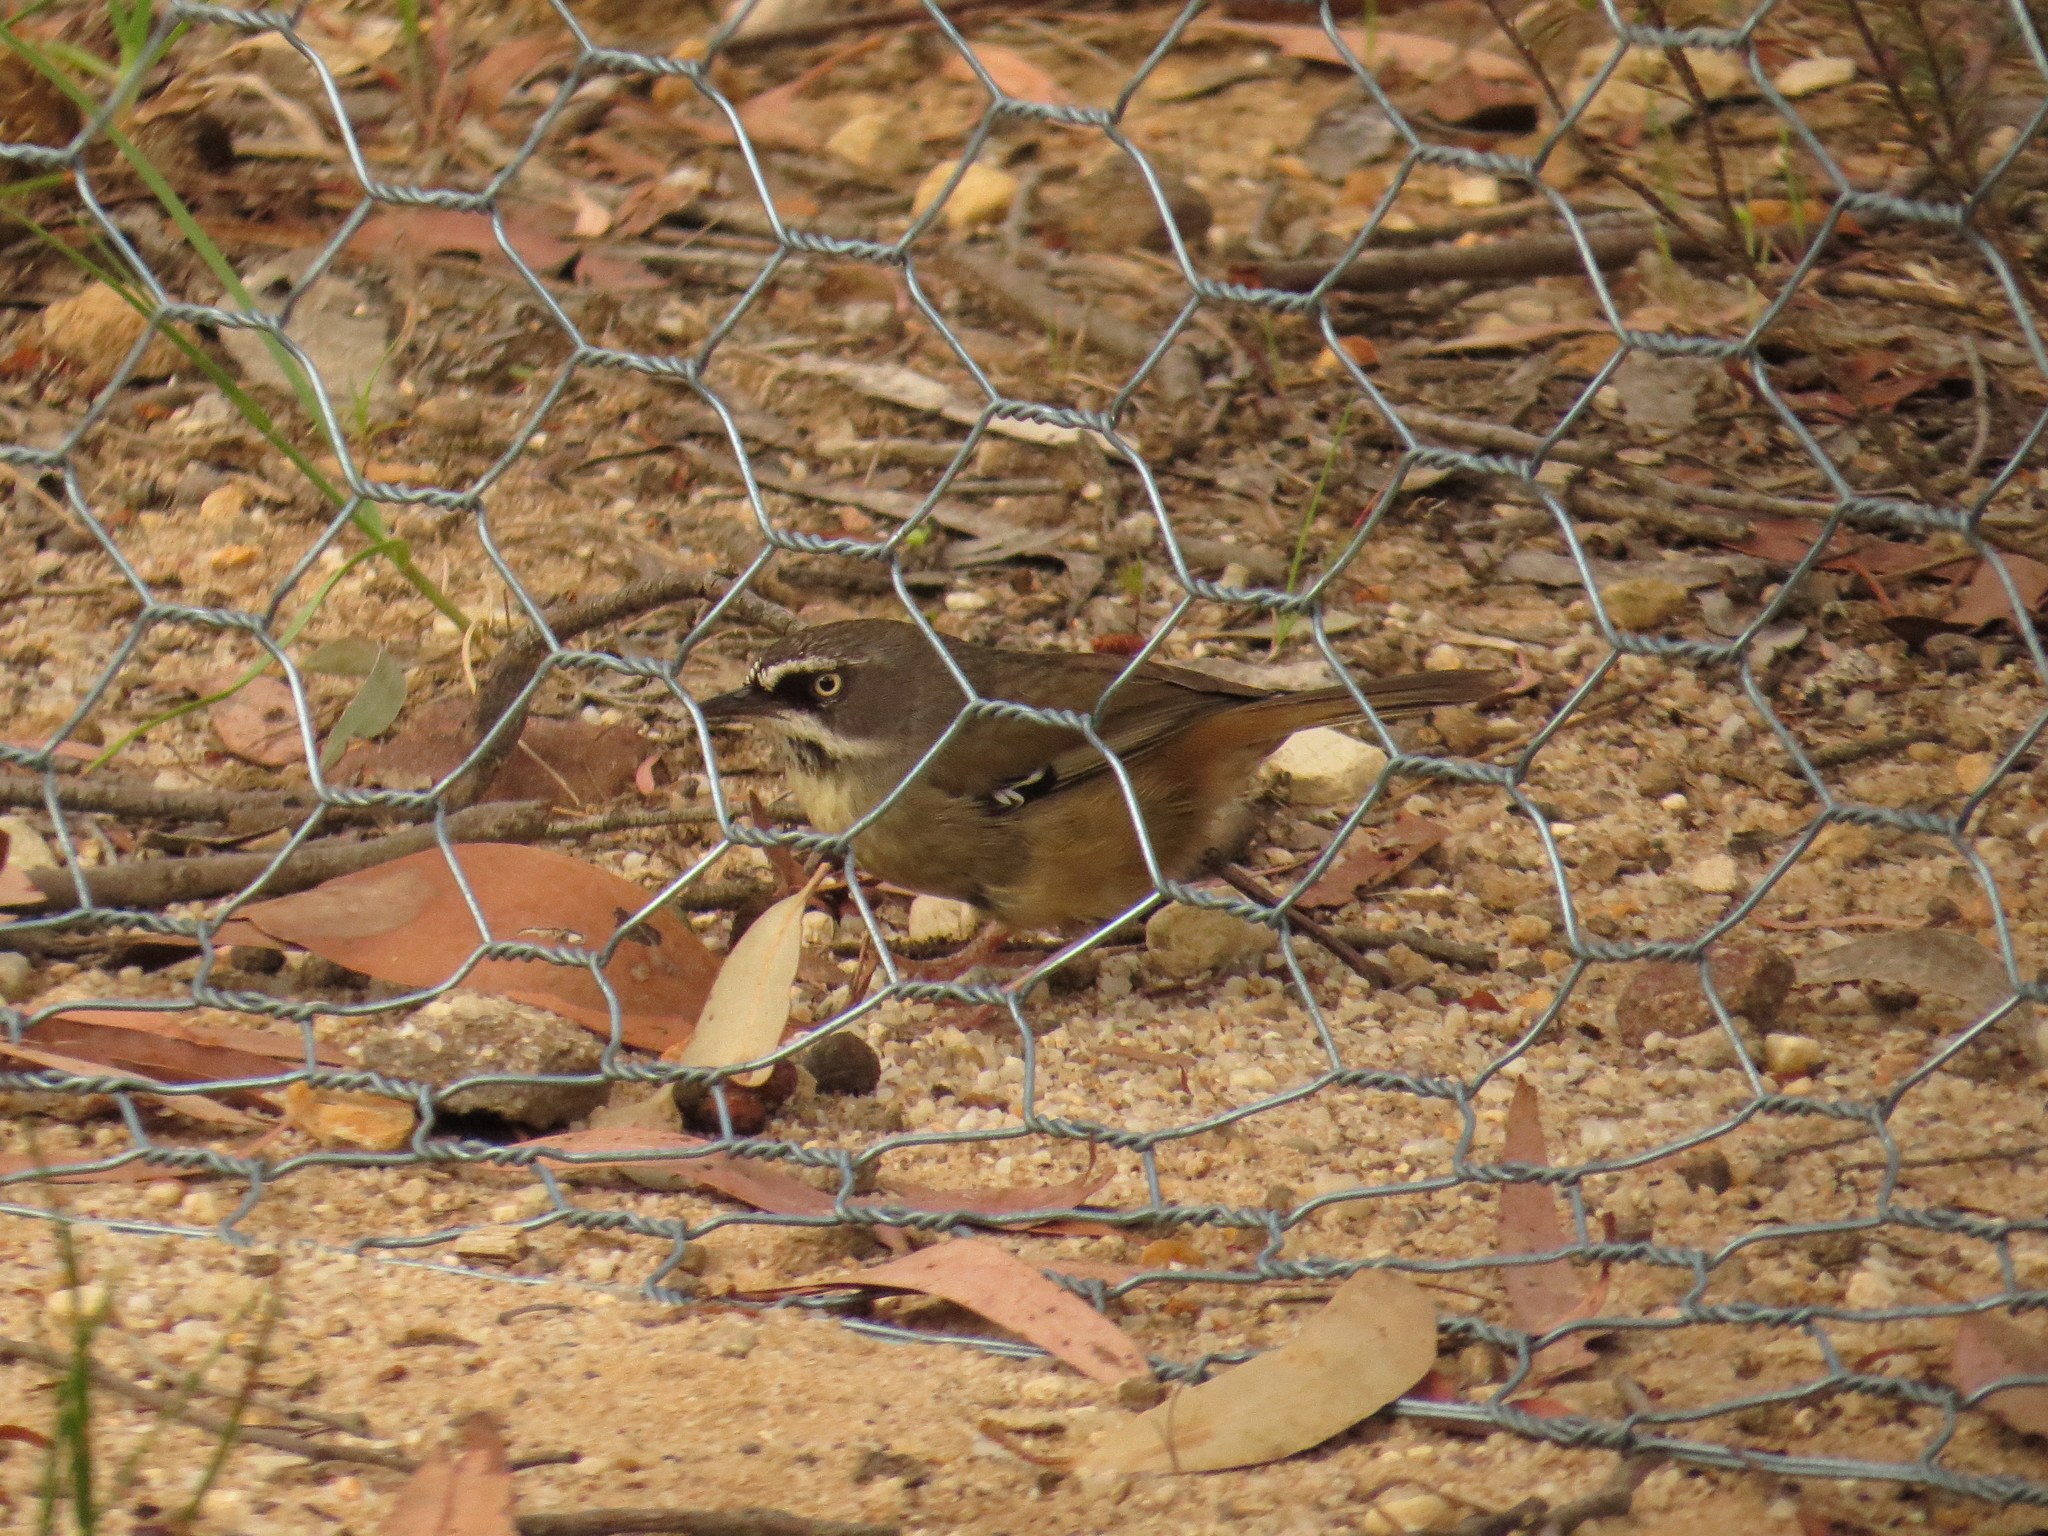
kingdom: Animalia
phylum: Chordata
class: Aves
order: Passeriformes
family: Acanthizidae
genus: Sericornis
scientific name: Sericornis frontalis
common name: White-browed scrubwren
